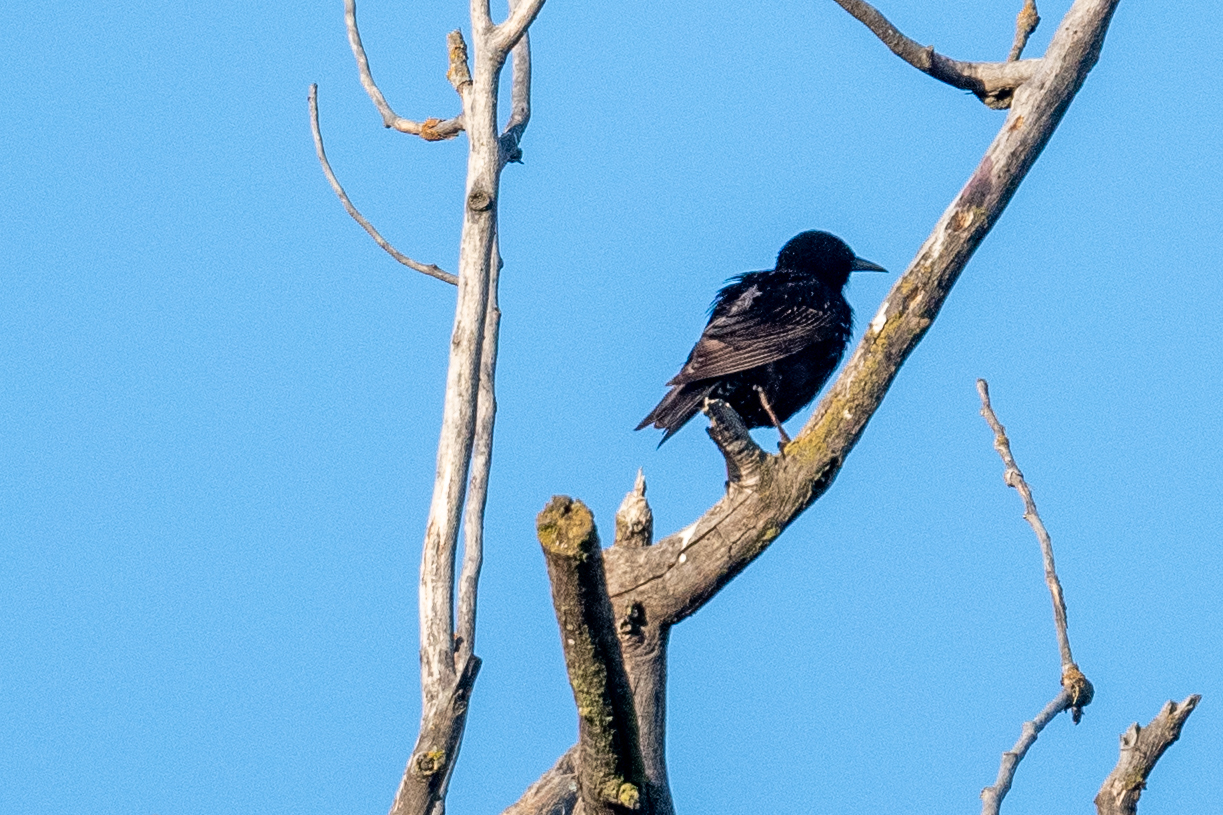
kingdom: Animalia
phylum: Chordata
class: Aves
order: Passeriformes
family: Sturnidae
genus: Sturnus
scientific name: Sturnus vulgaris
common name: Common starling
